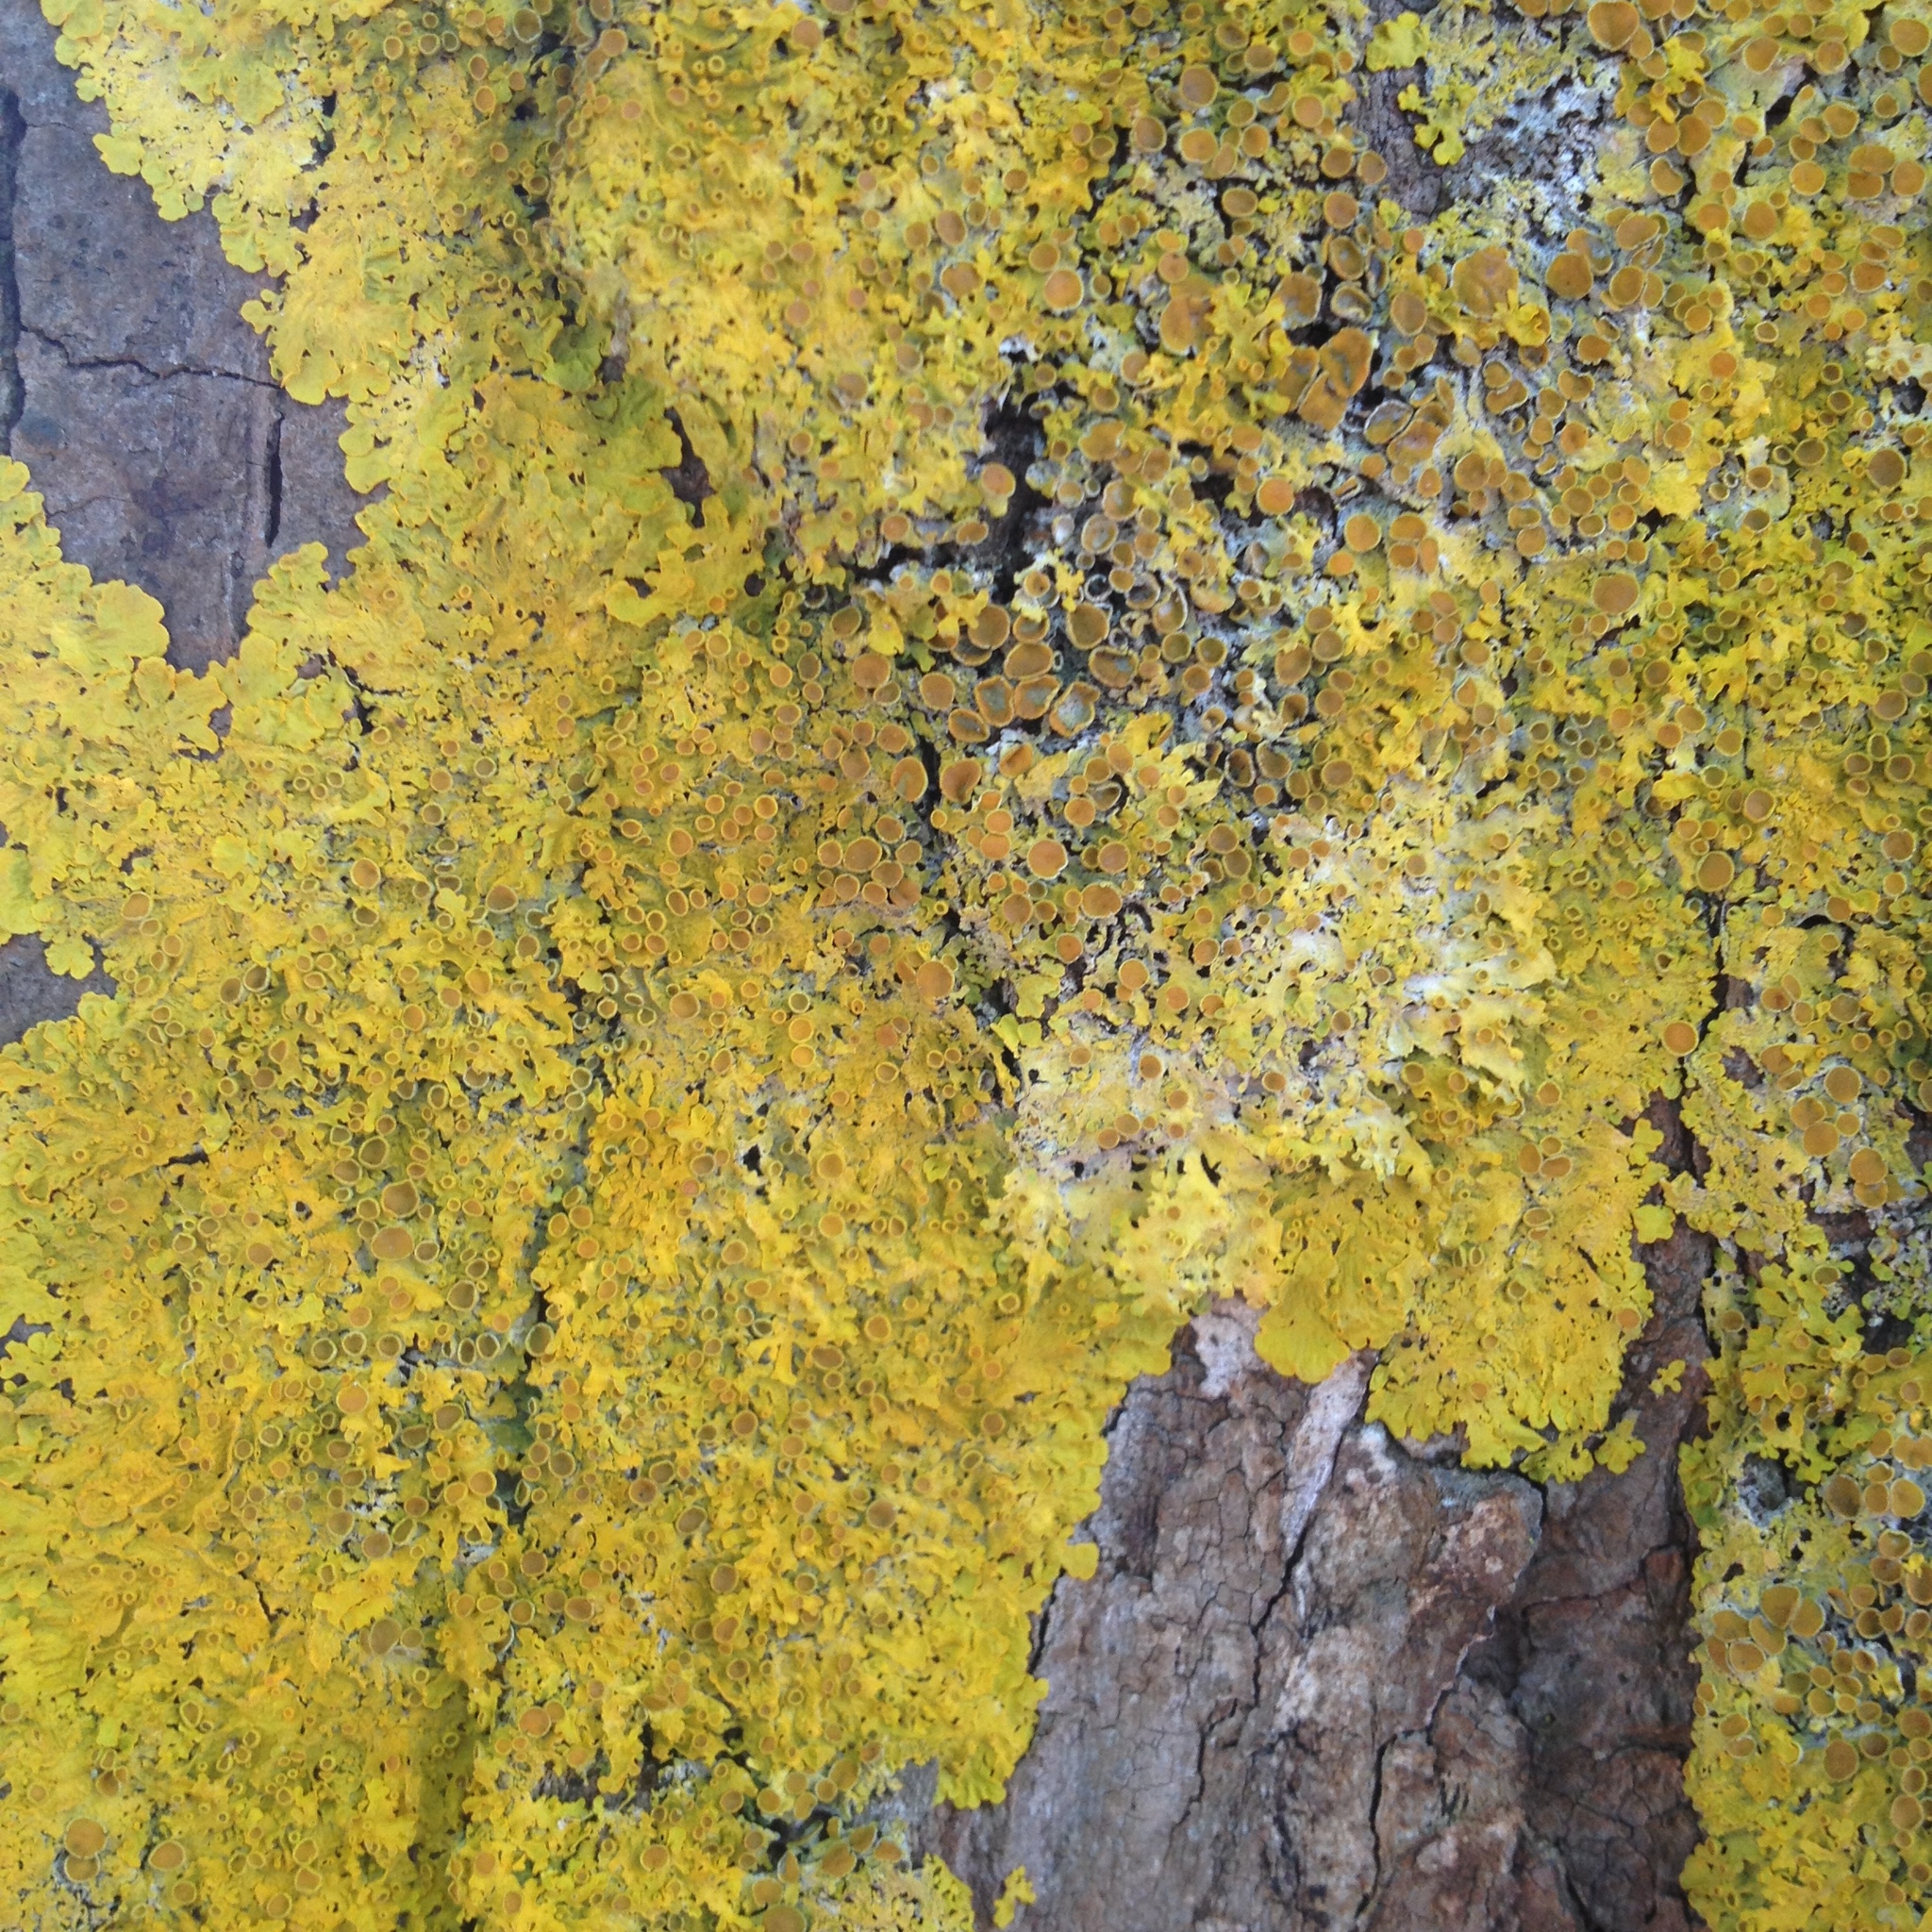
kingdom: Fungi
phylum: Ascomycota
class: Lecanoromycetes
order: Teloschistales
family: Teloschistaceae
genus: Xanthoria
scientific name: Xanthoria parietina
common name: Common orange lichen
